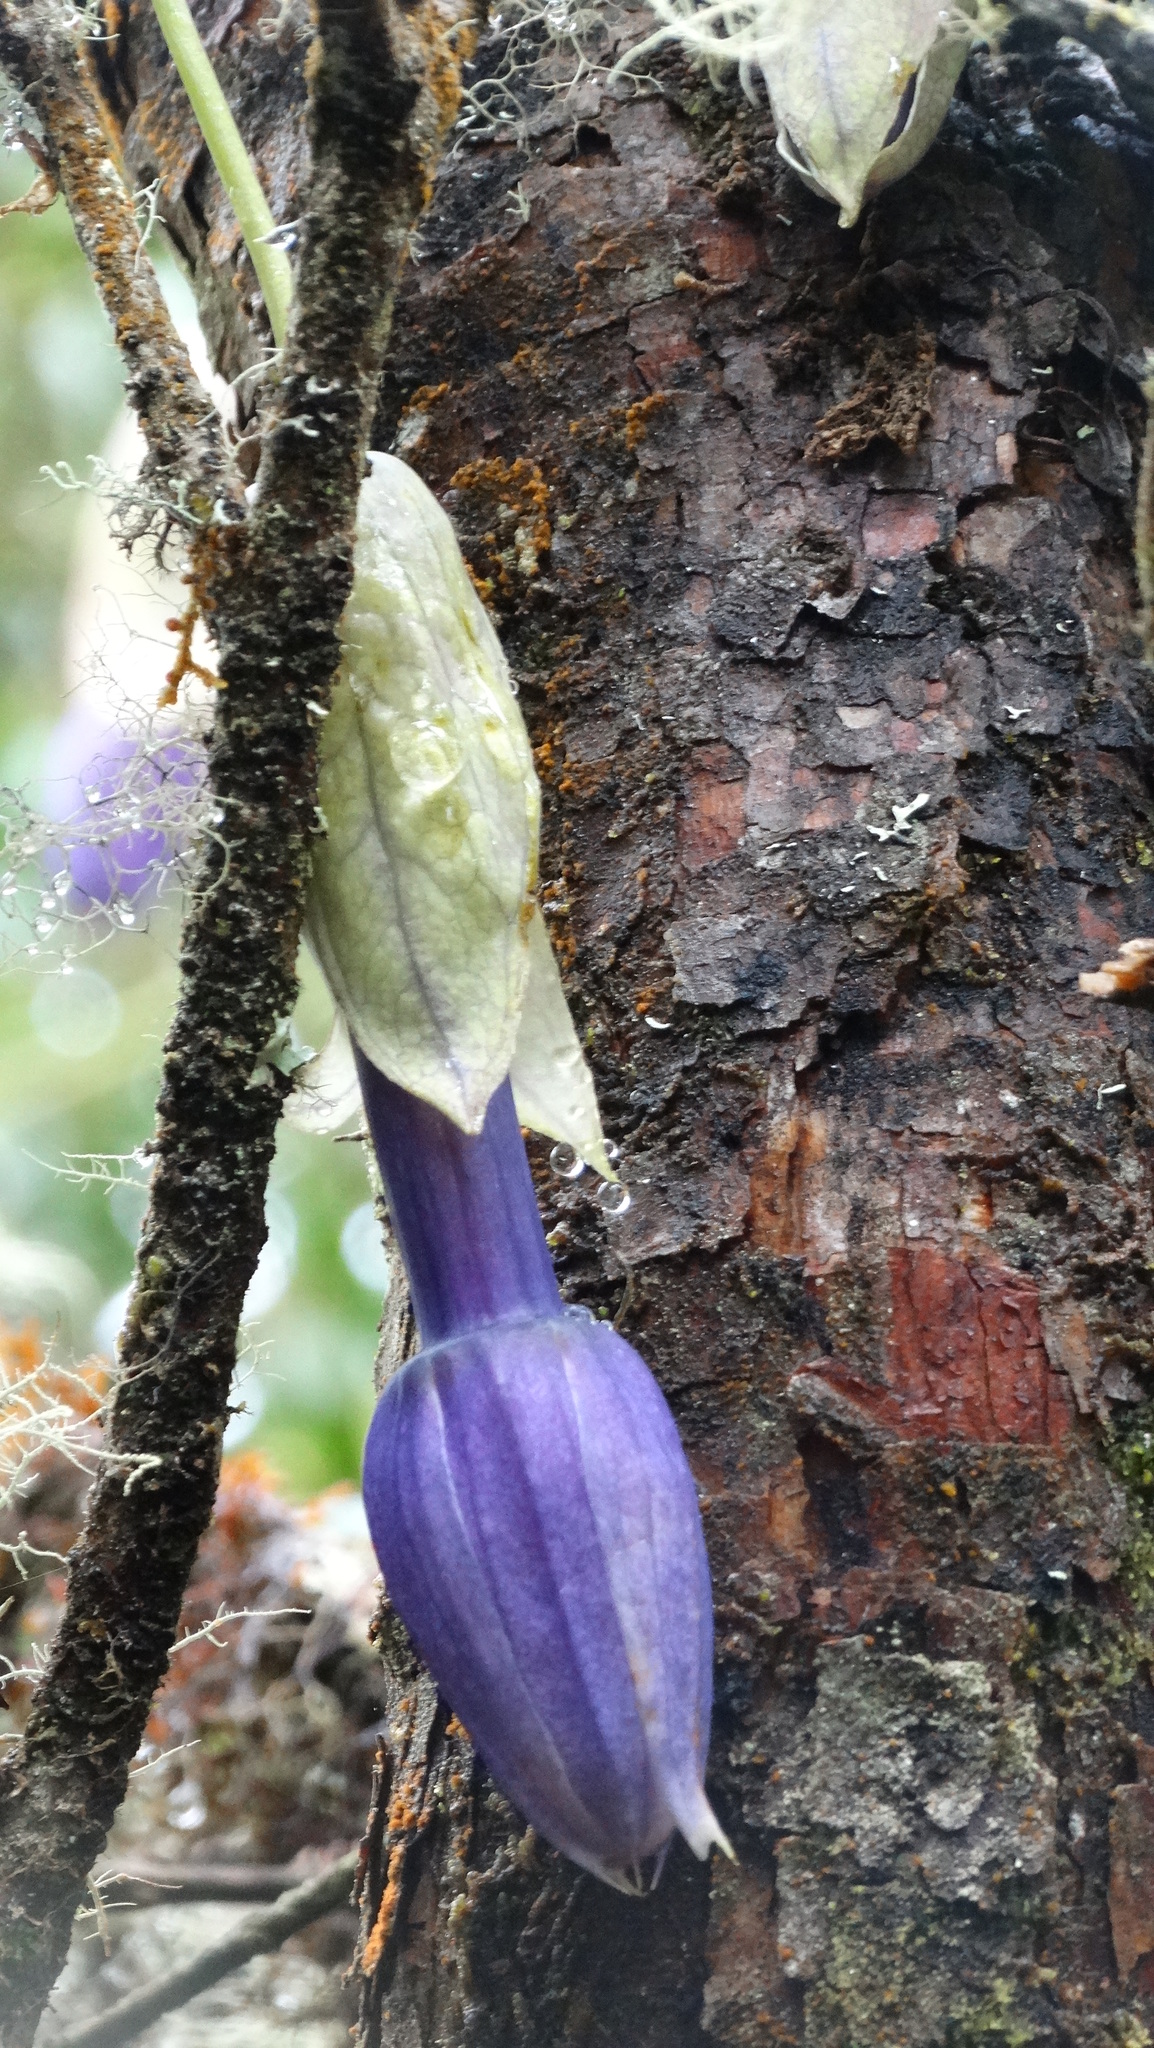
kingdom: Plantae
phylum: Tracheophyta
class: Magnoliopsida
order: Malpighiales
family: Passifloraceae
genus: Passiflora
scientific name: Passiflora cumbalensis
